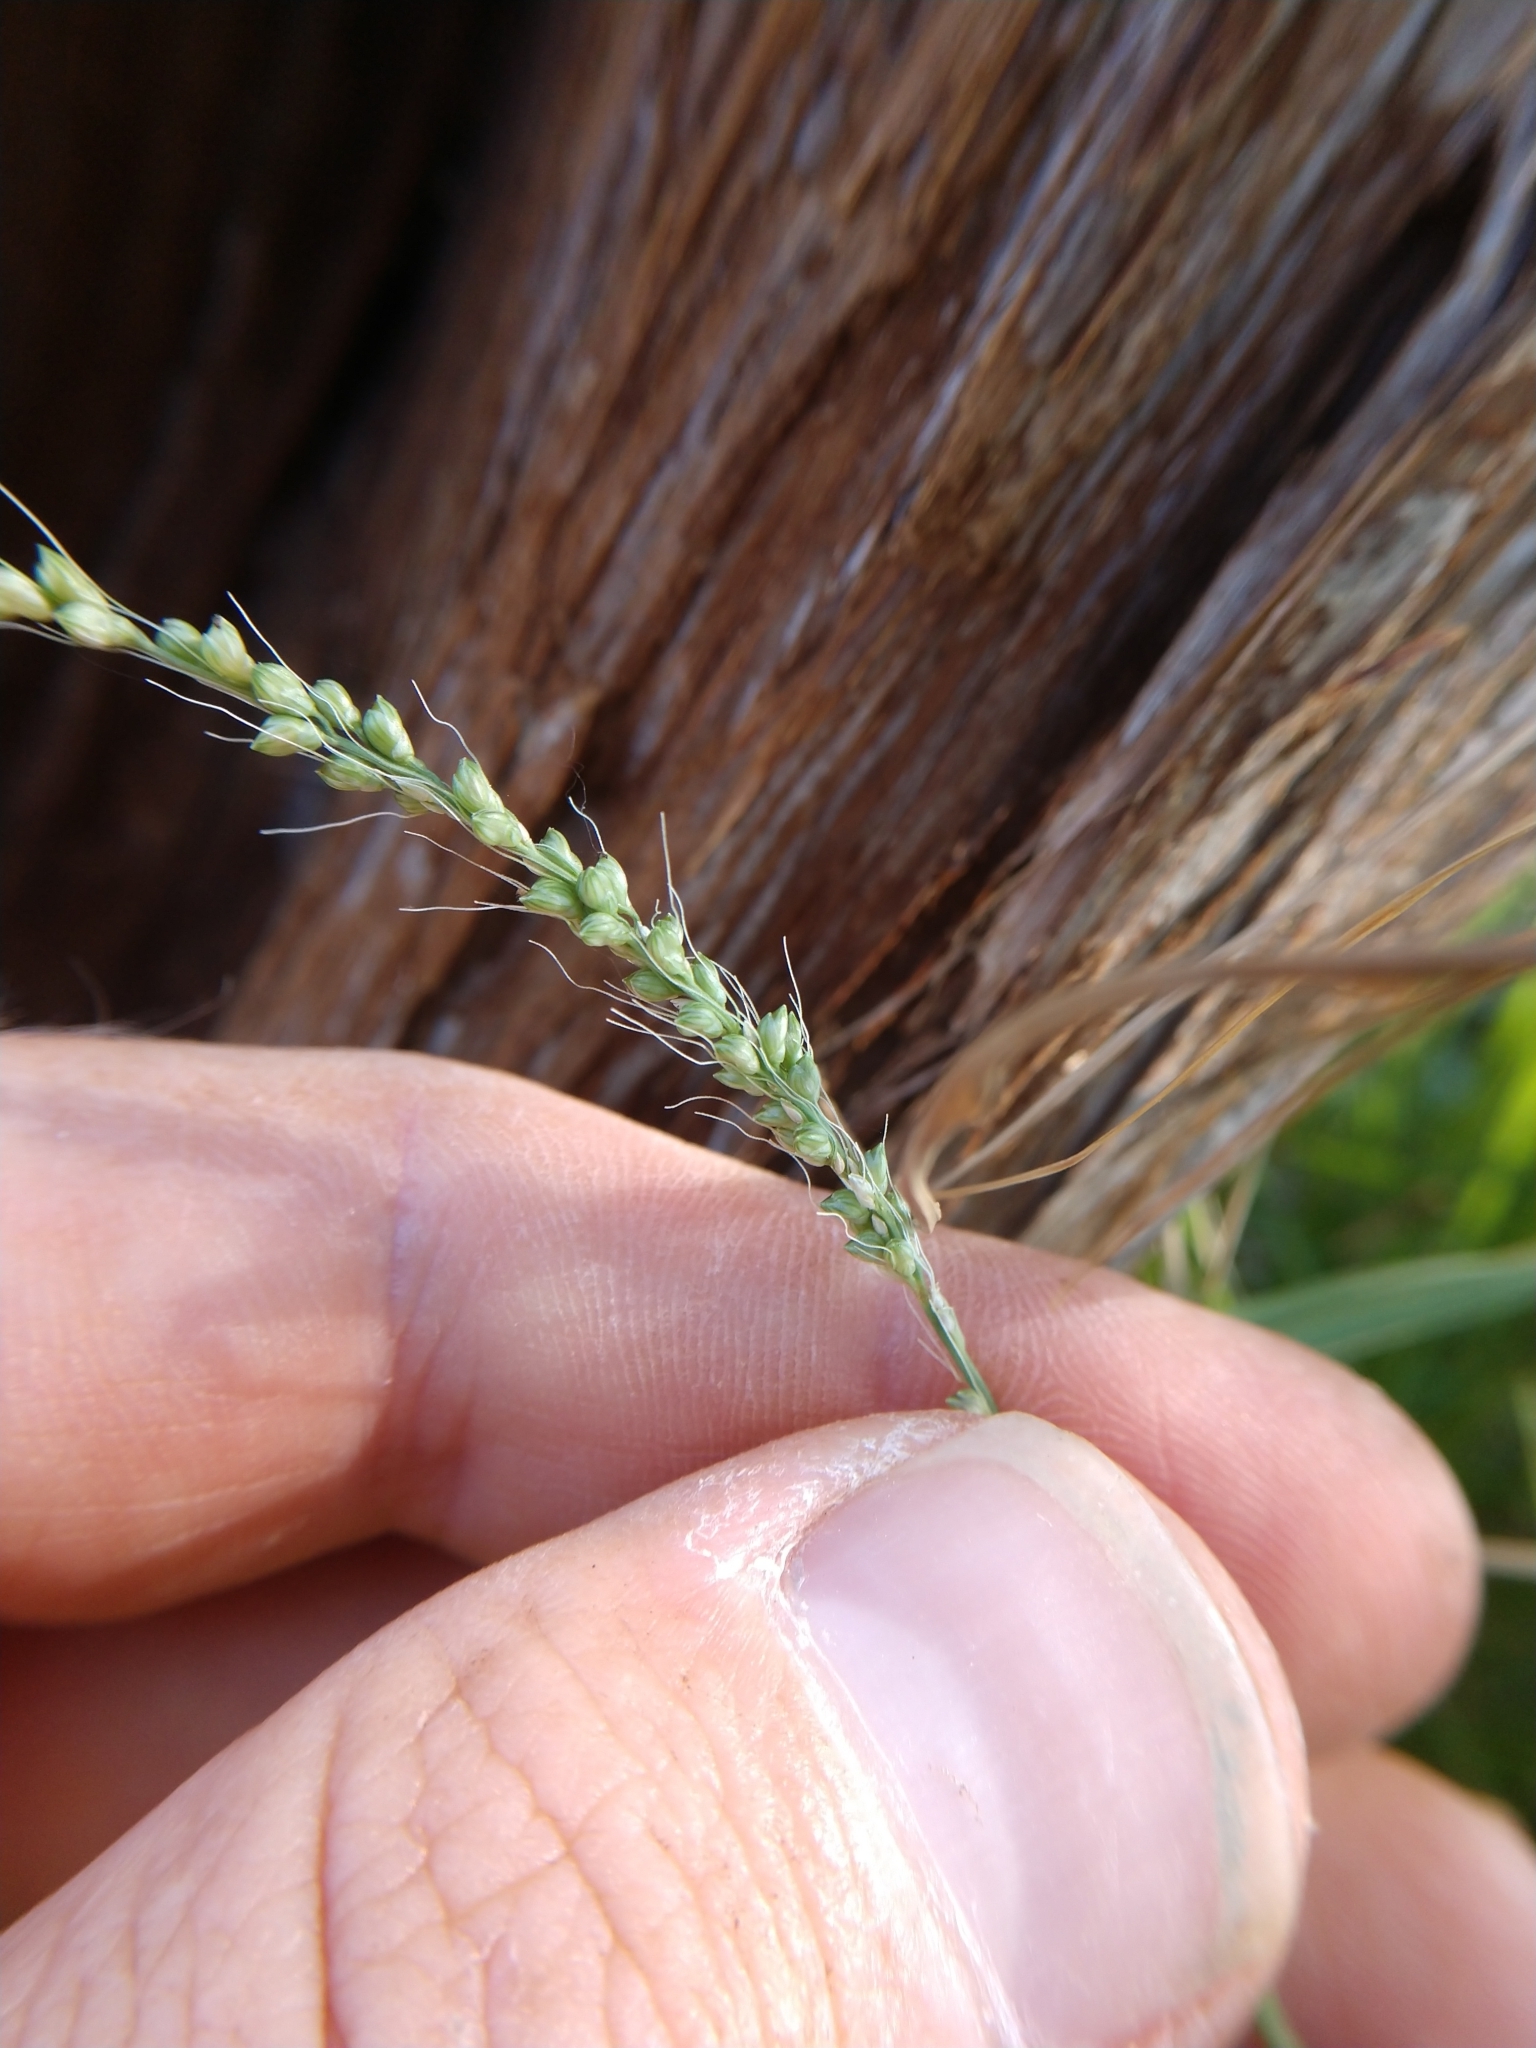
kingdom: Plantae
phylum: Tracheophyta
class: Liliopsida
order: Poales
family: Poaceae
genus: Setaria
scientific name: Setaria leucopila
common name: Plains bristle grass
